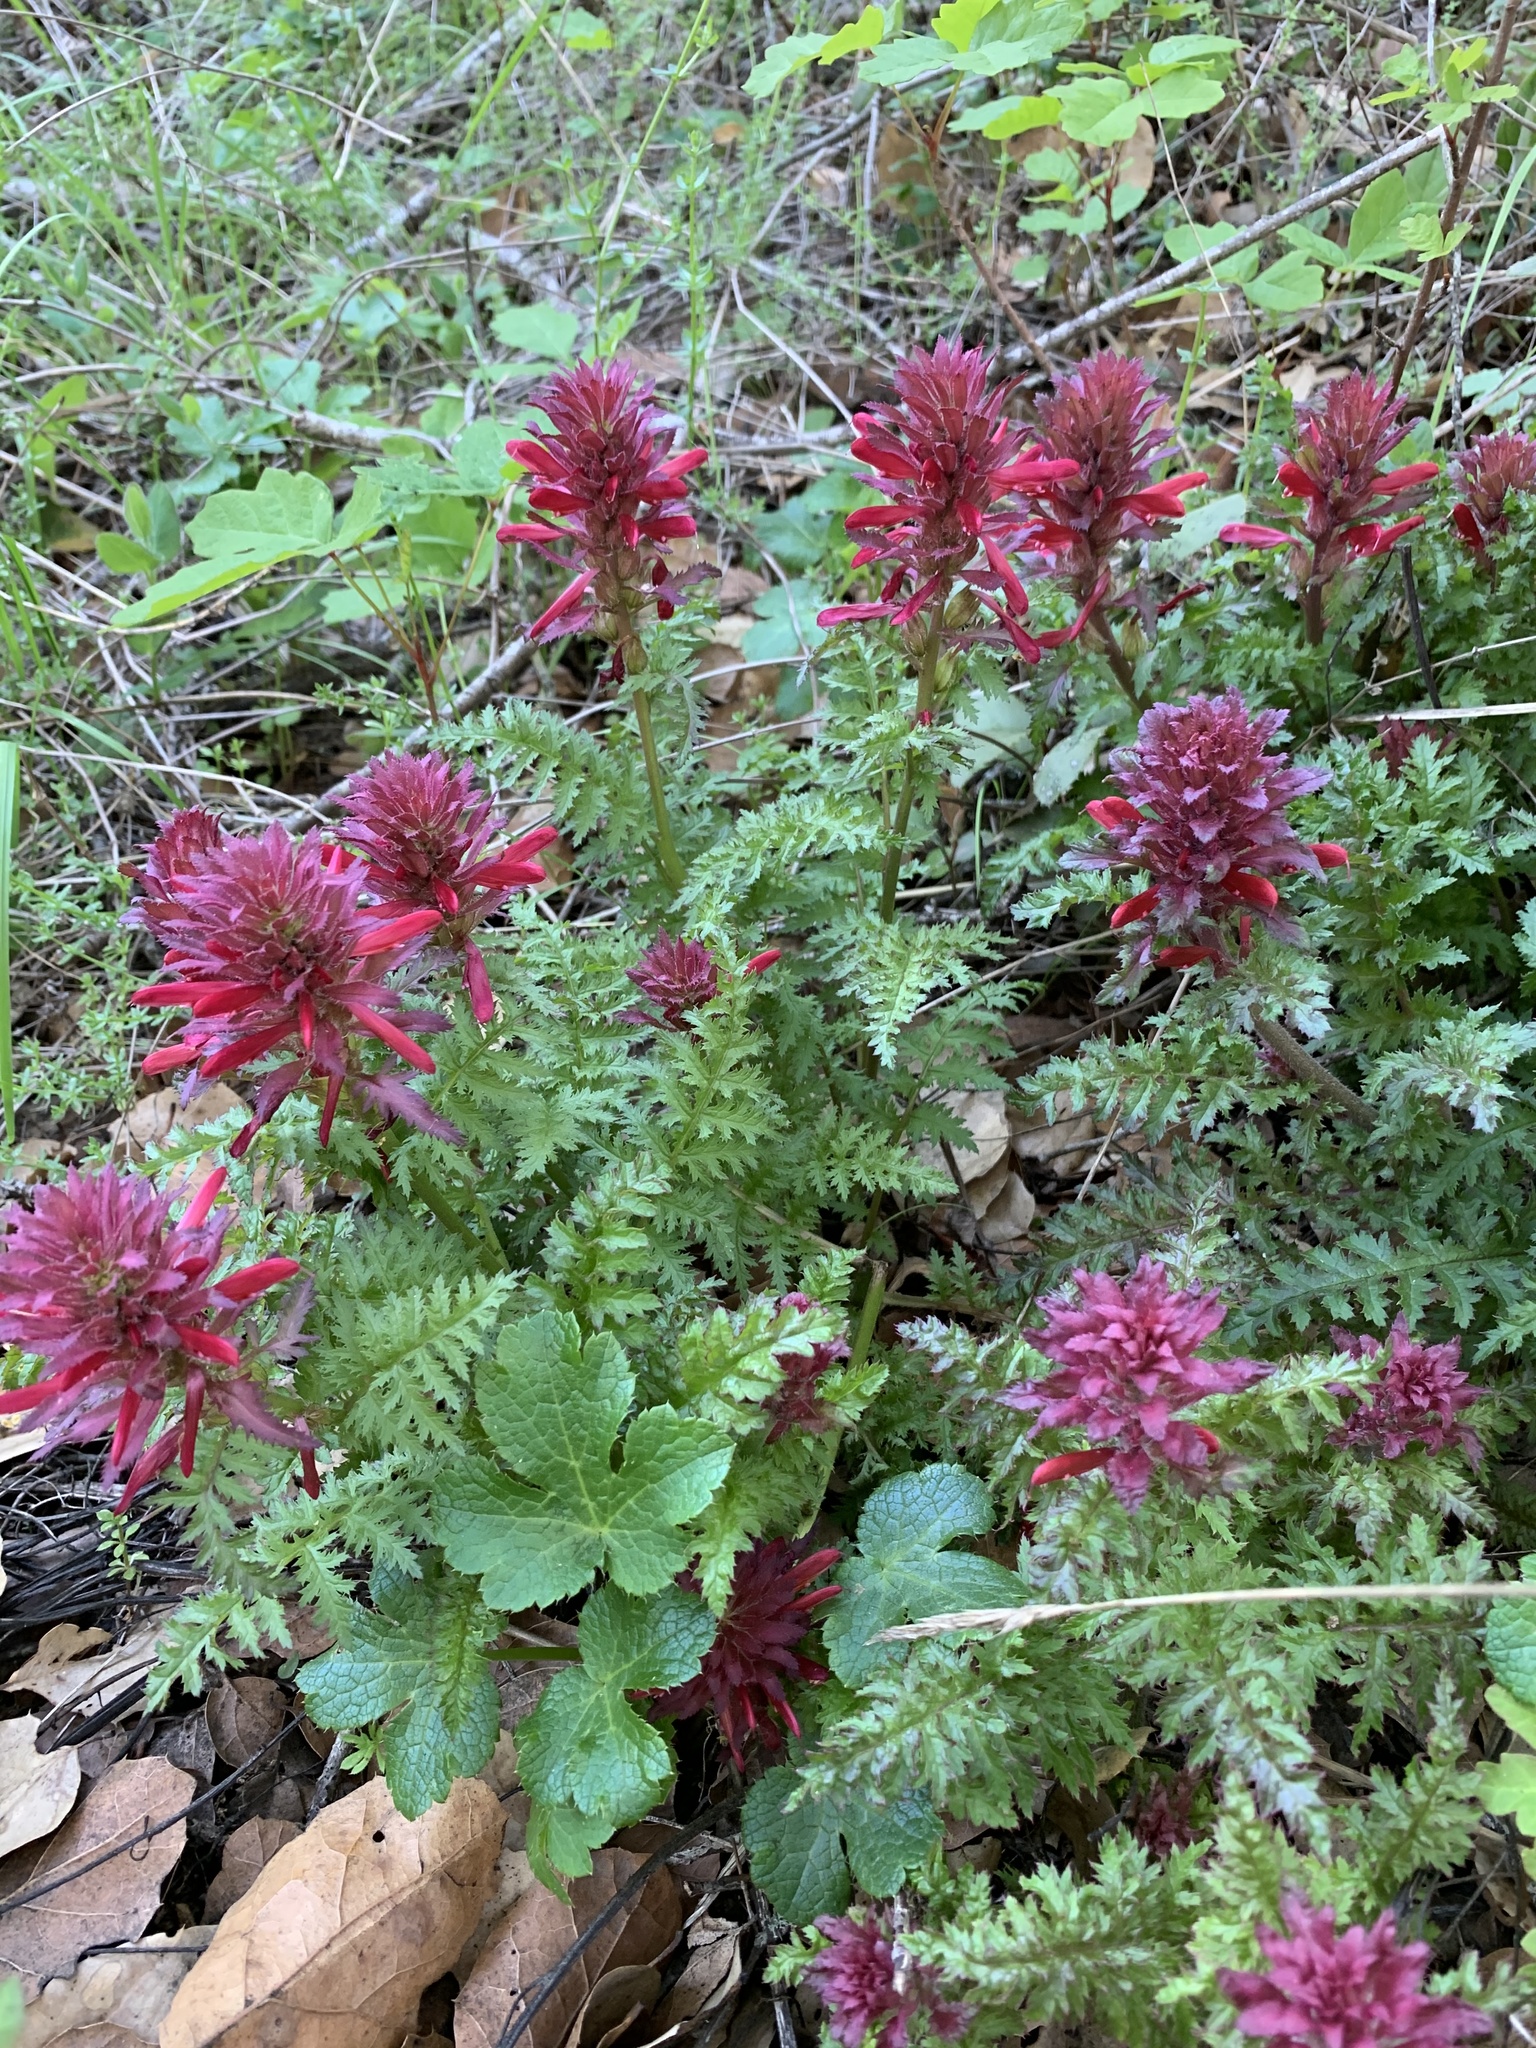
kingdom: Plantae
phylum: Tracheophyta
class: Magnoliopsida
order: Lamiales
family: Orobanchaceae
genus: Pedicularis
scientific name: Pedicularis densiflora
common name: Indian warrior
